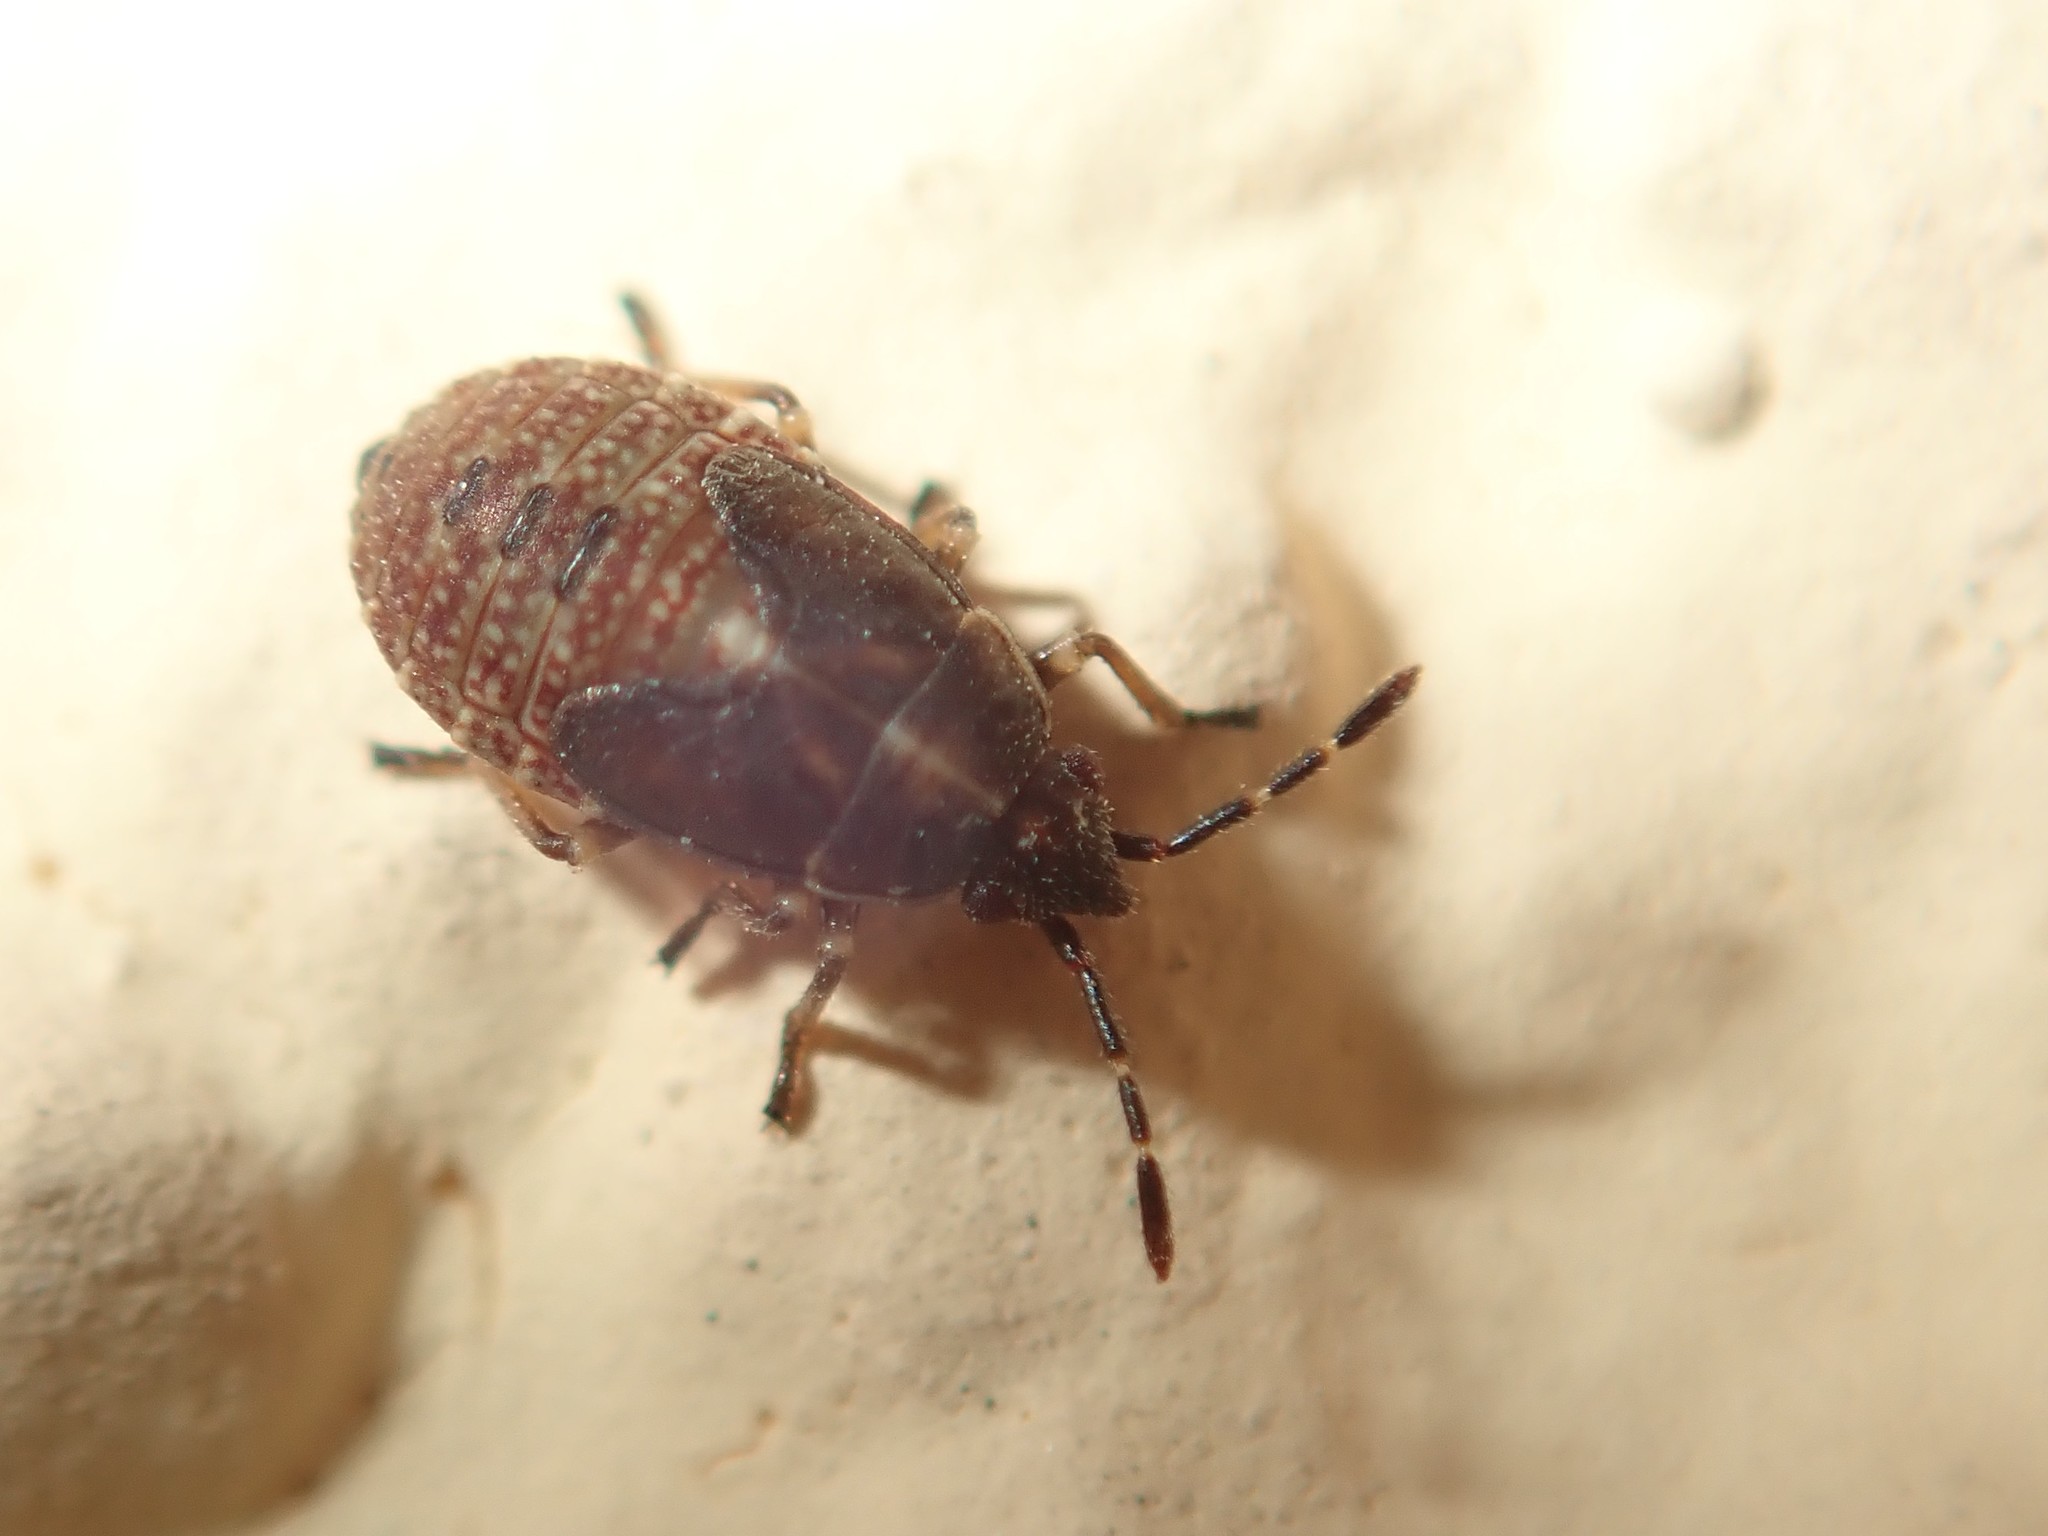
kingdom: Animalia
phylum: Arthropoda
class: Insecta
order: Hemiptera
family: Lygaeidae
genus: Kleidocerys
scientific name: Kleidocerys resedae
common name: Birch catkin bug
